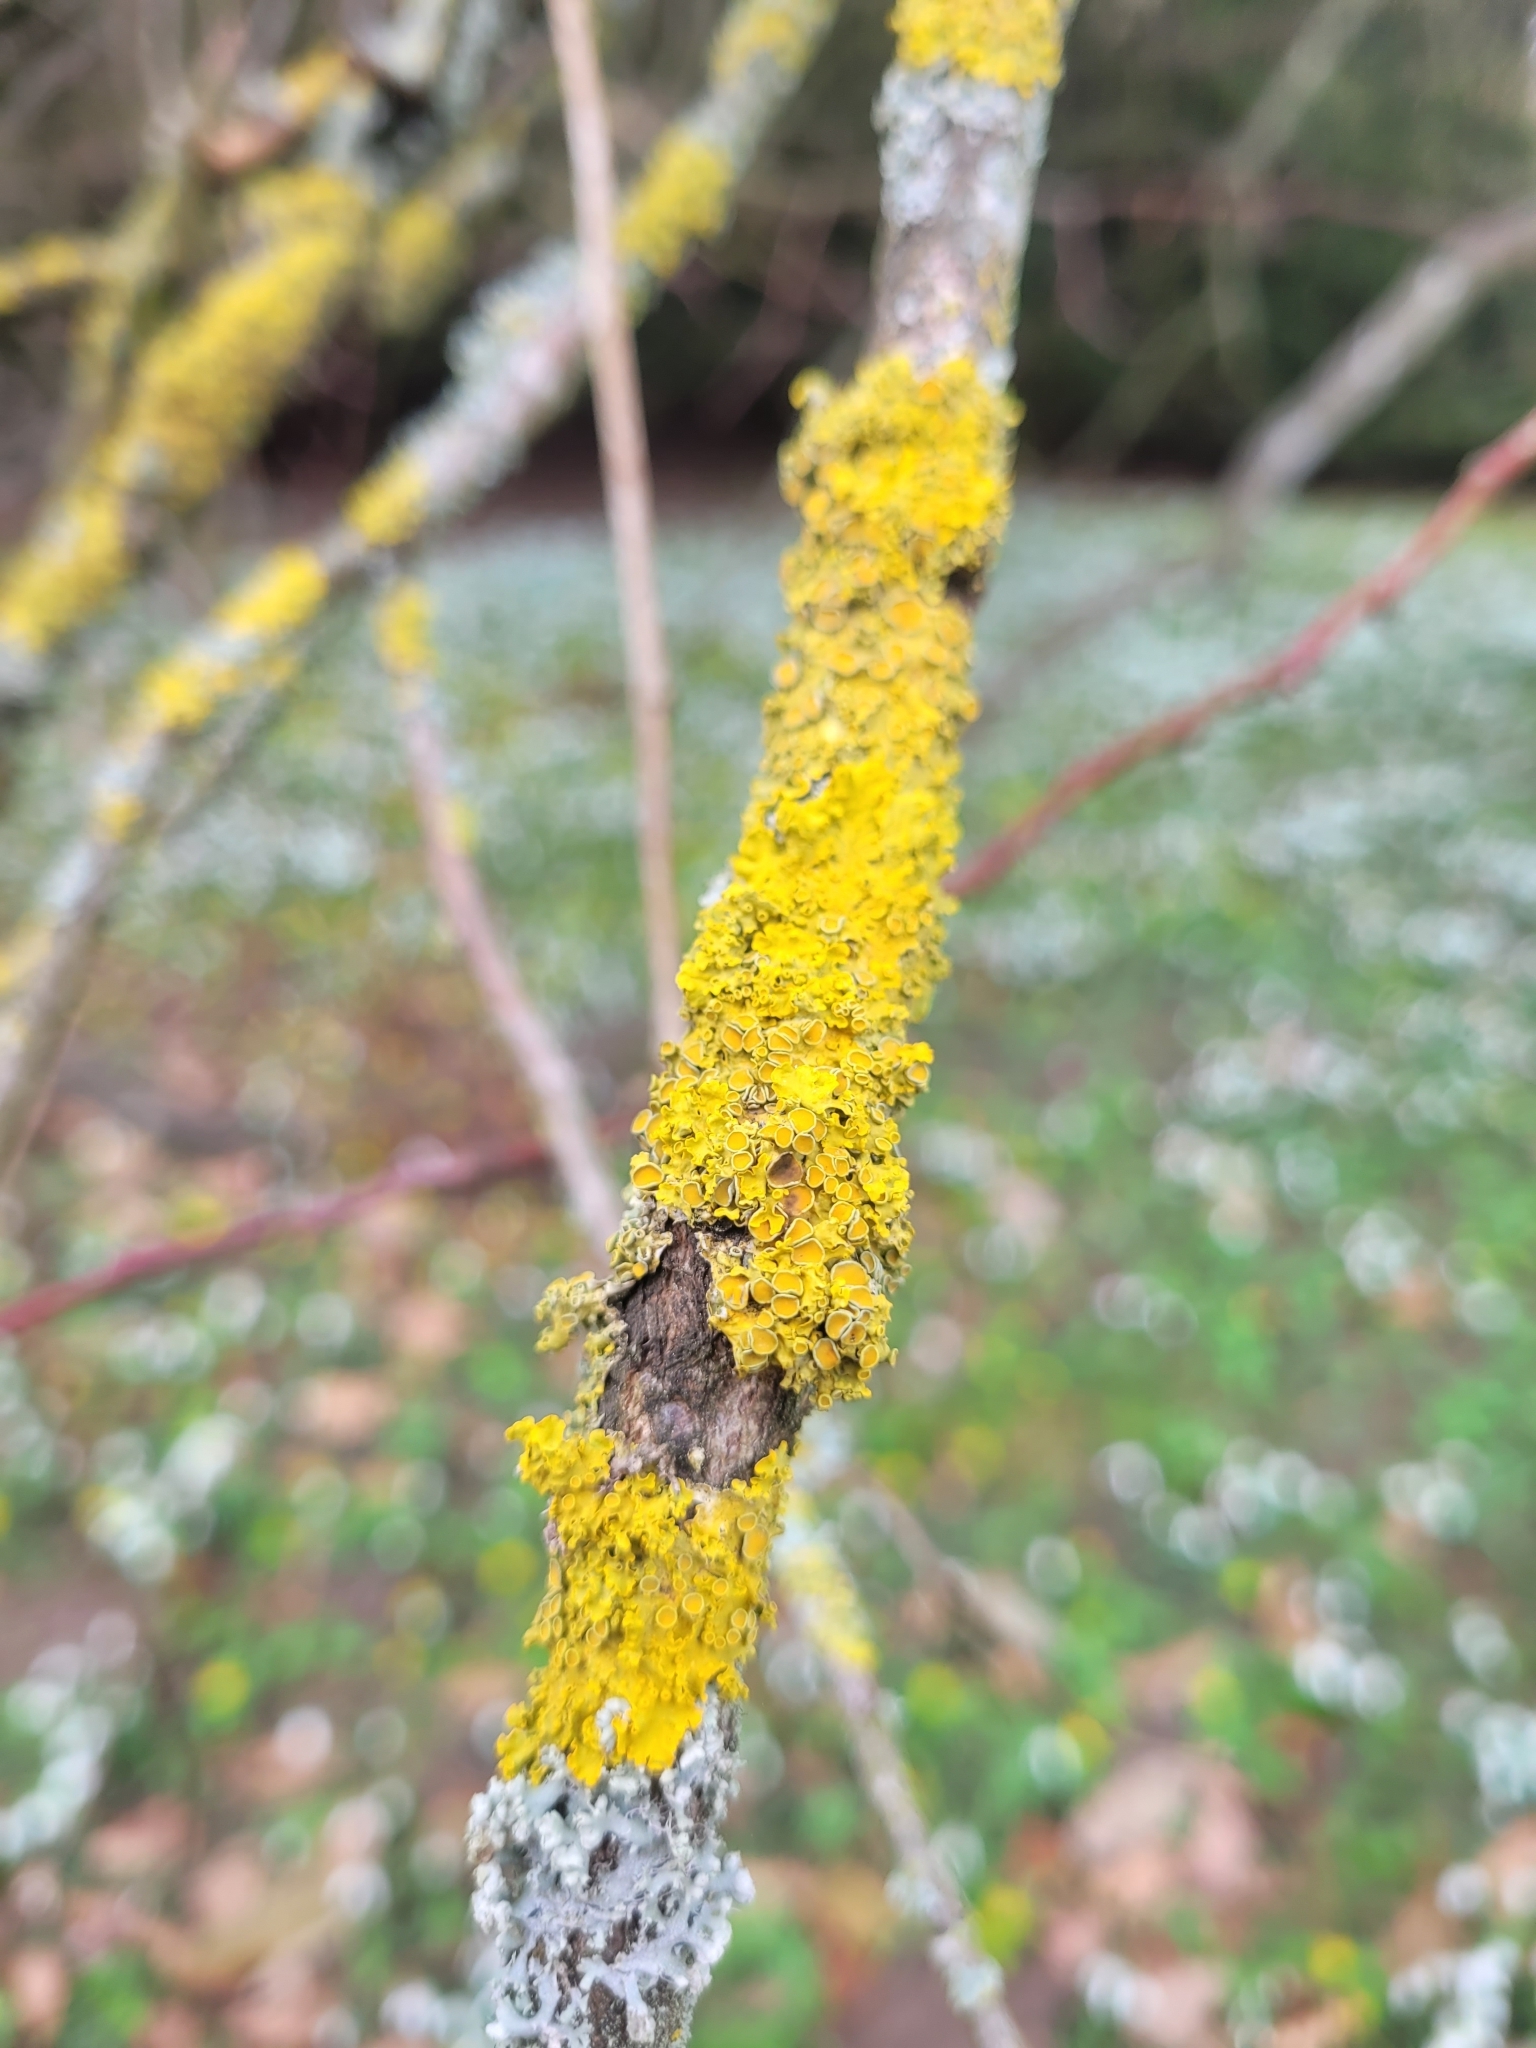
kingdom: Fungi
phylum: Ascomycota
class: Lecanoromycetes
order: Teloschistales
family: Teloschistaceae
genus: Xanthoria
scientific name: Xanthoria parietina
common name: Common orange lichen
